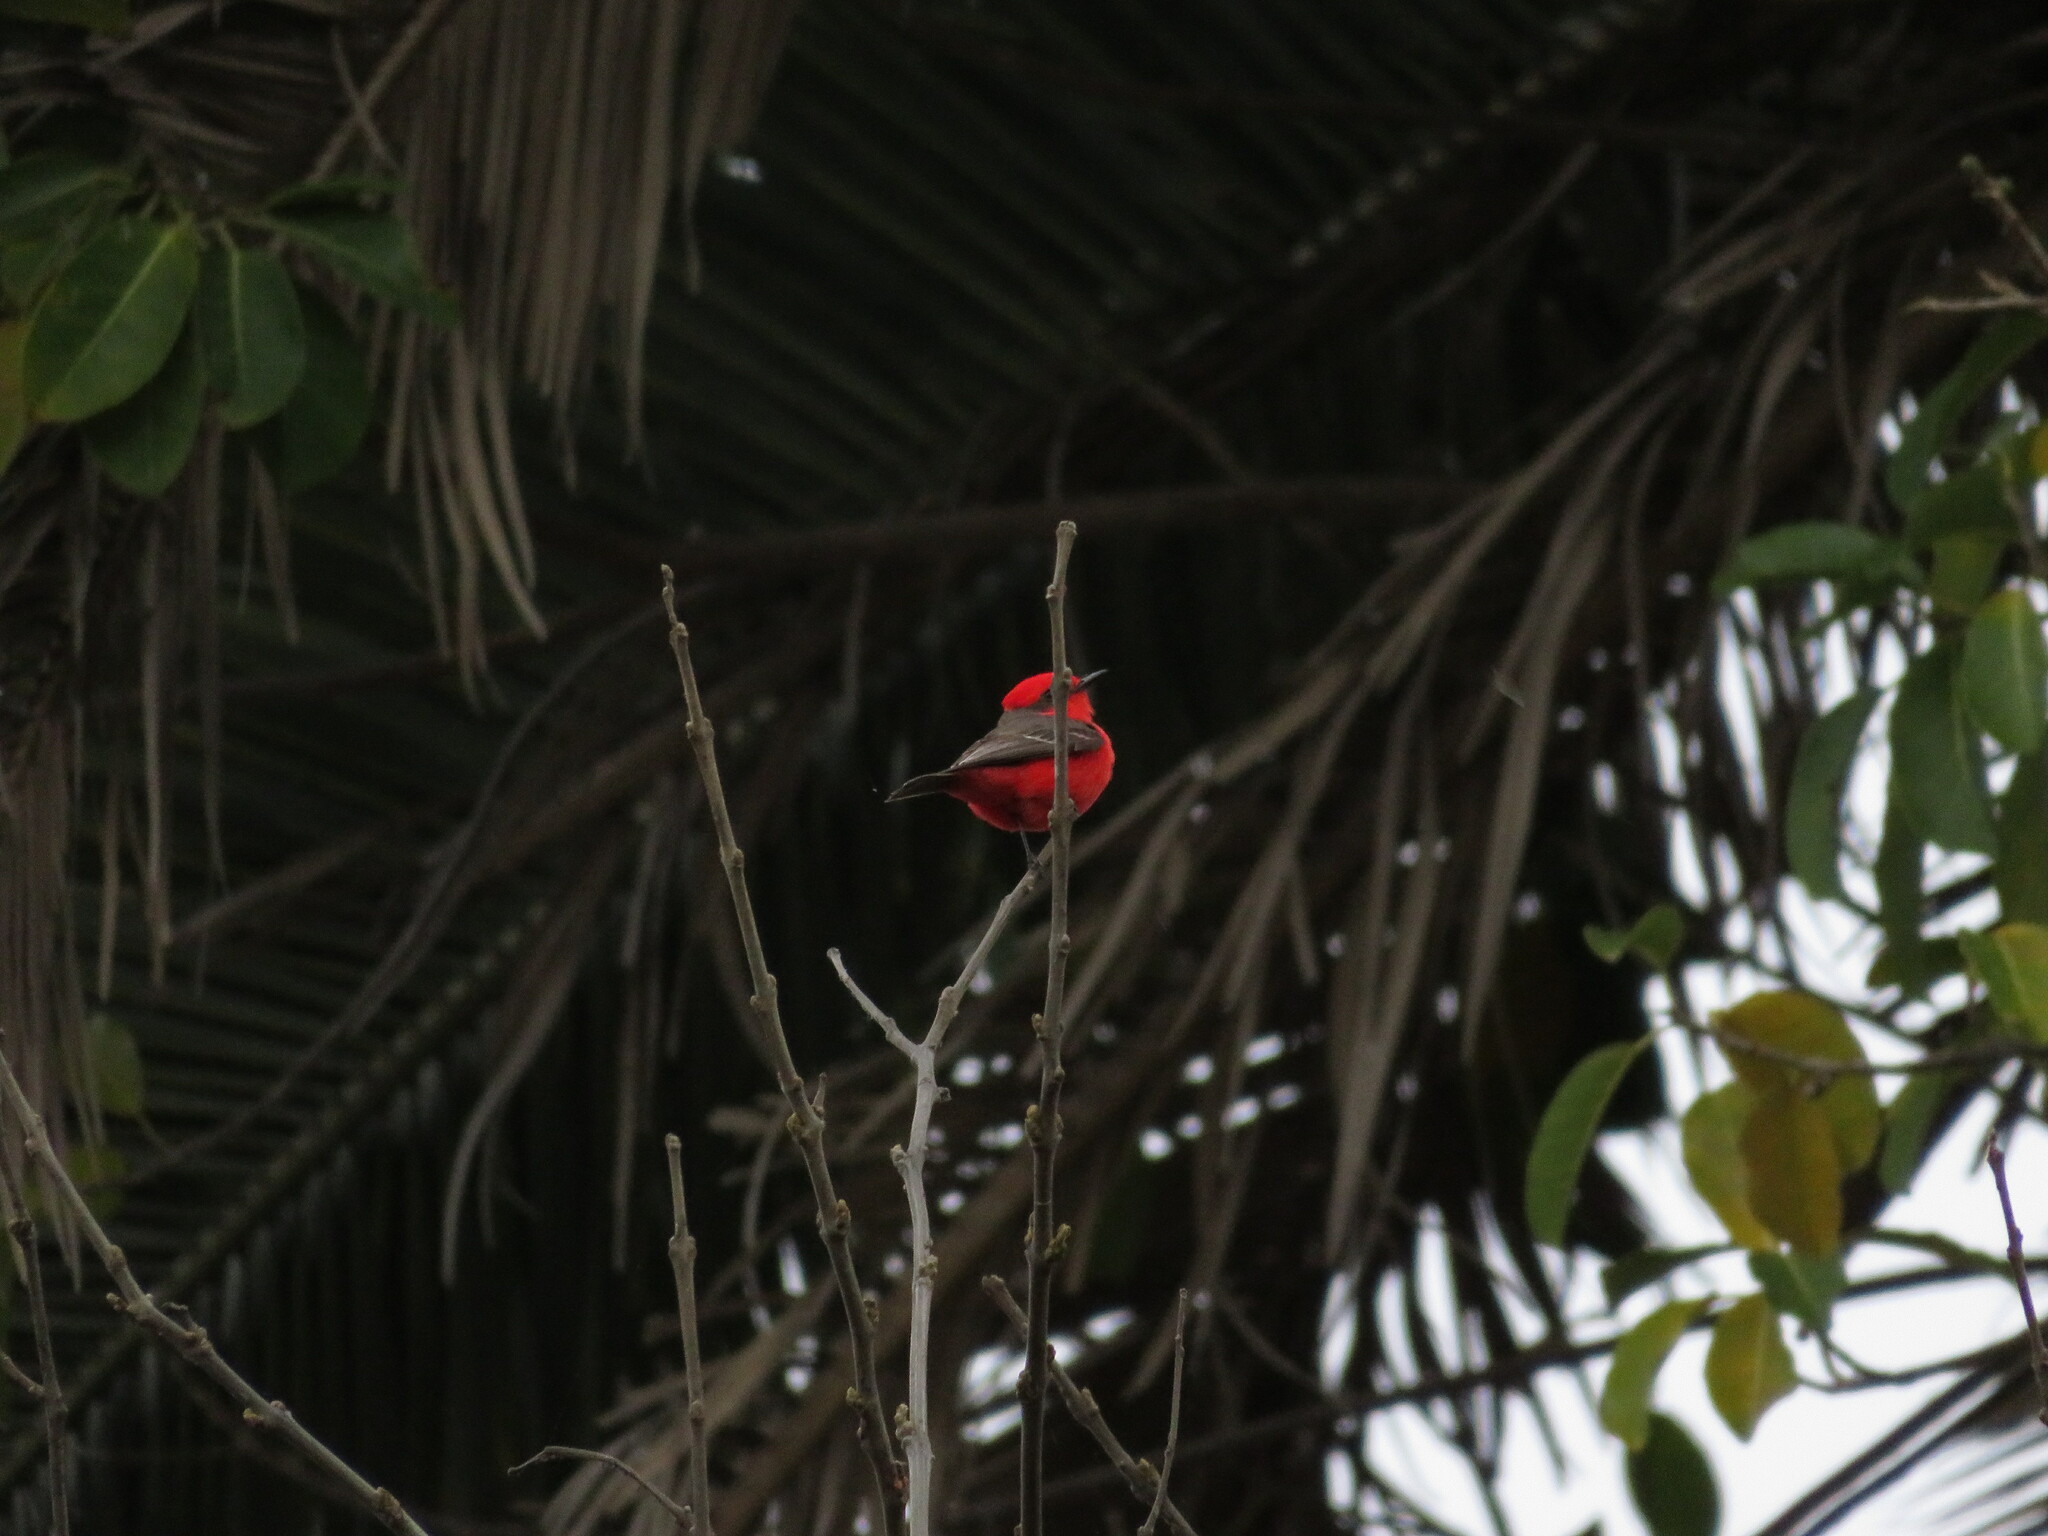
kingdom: Animalia
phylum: Chordata
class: Aves
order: Passeriformes
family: Tyrannidae
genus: Pyrocephalus
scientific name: Pyrocephalus rubinus
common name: Vermilion flycatcher
